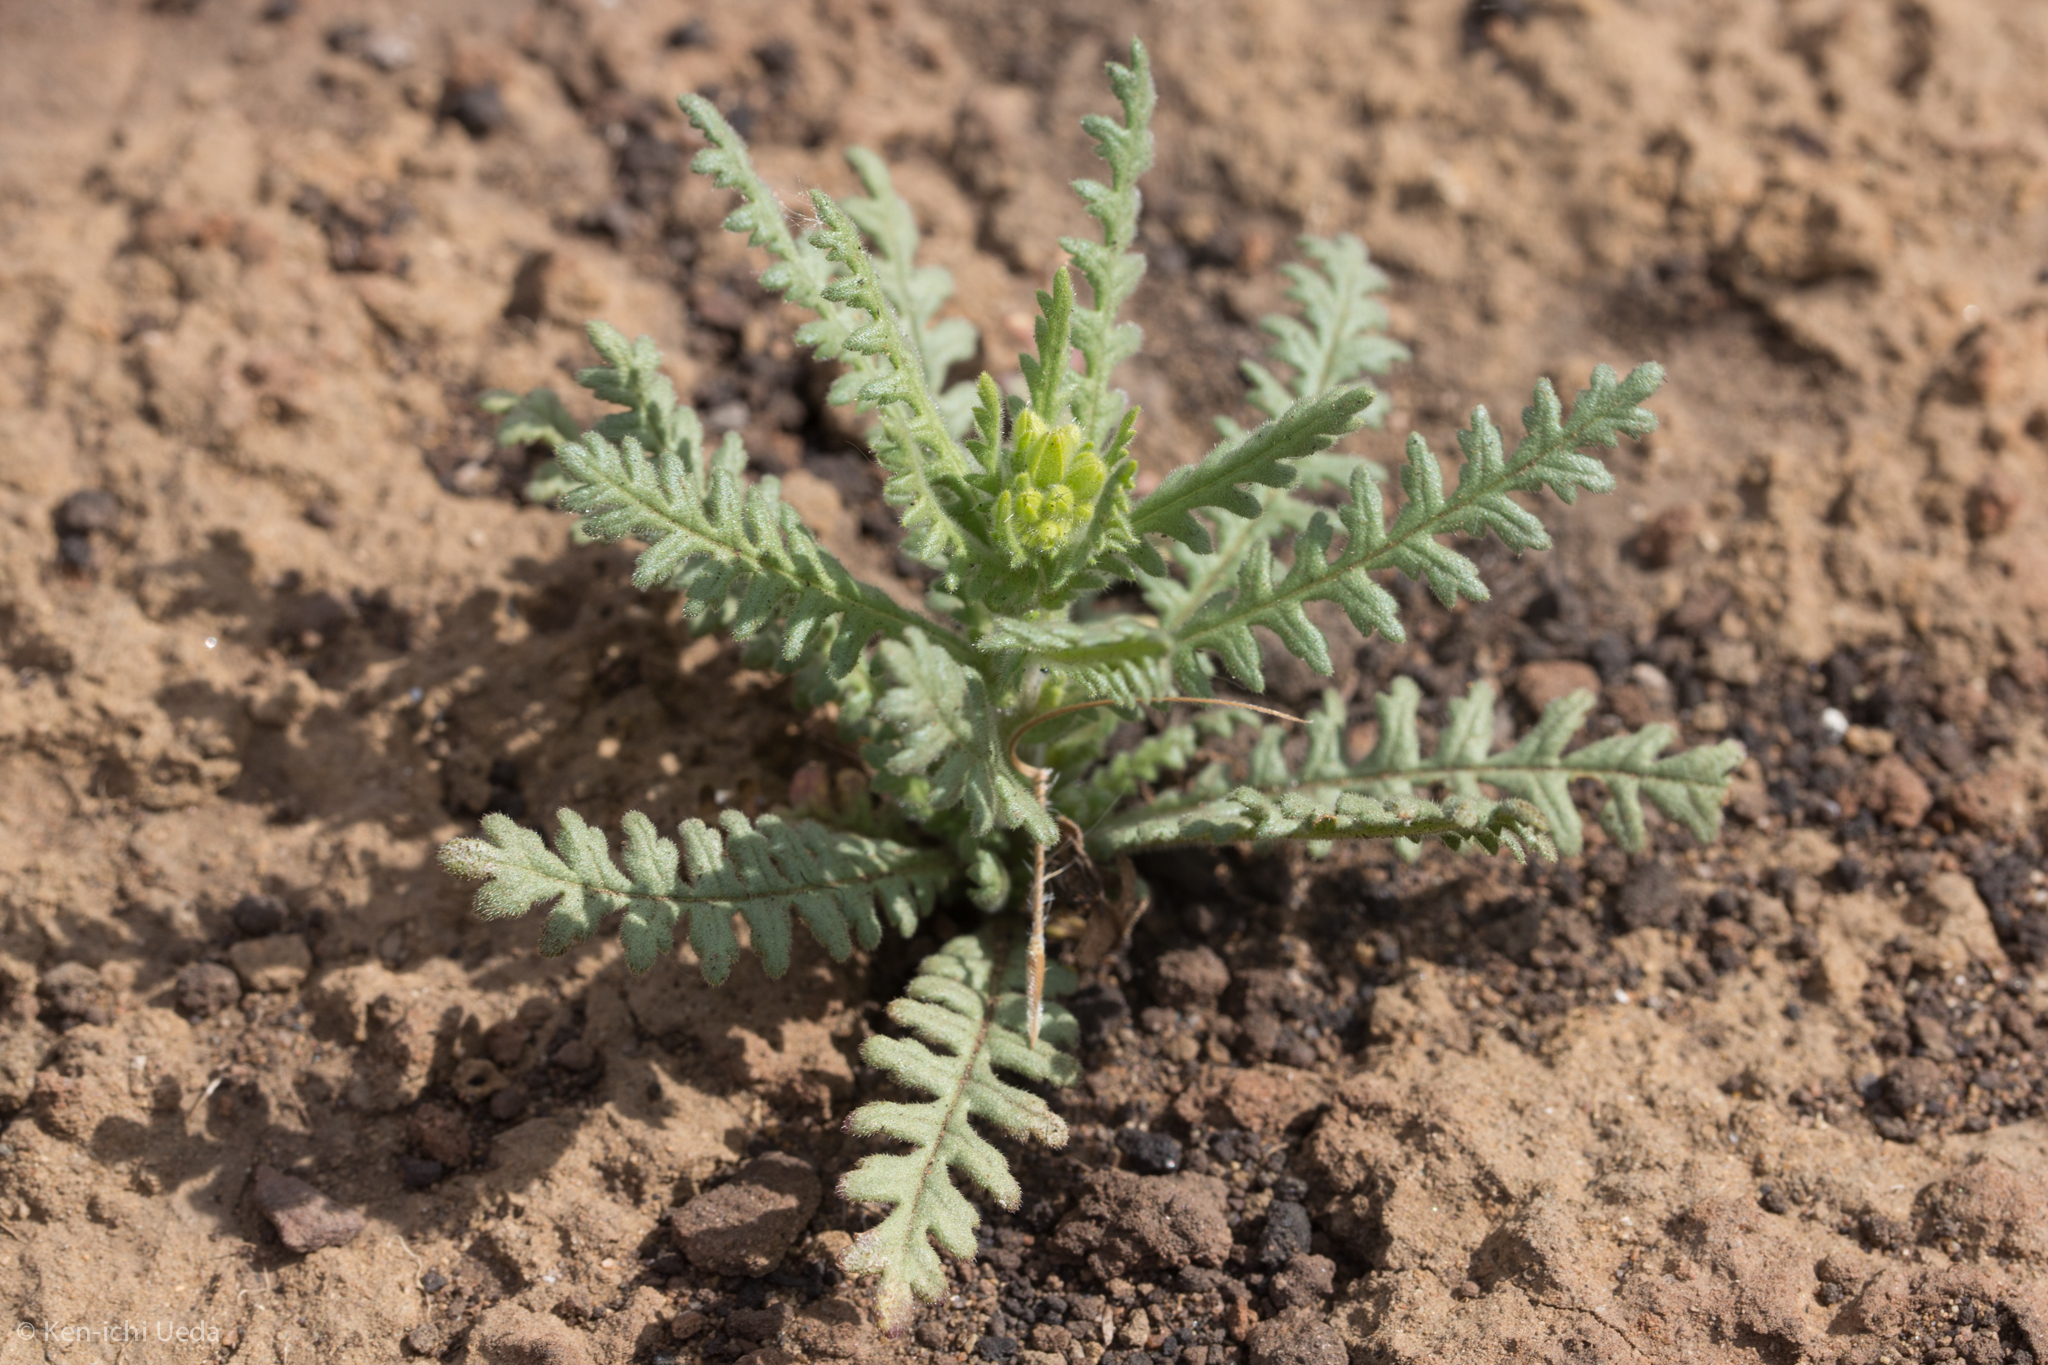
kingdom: Plantae
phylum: Tracheophyta
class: Magnoliopsida
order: Boraginales
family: Hydrophyllaceae
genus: Emmenanthe
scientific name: Emmenanthe penduliflora
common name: Whispering-bells
